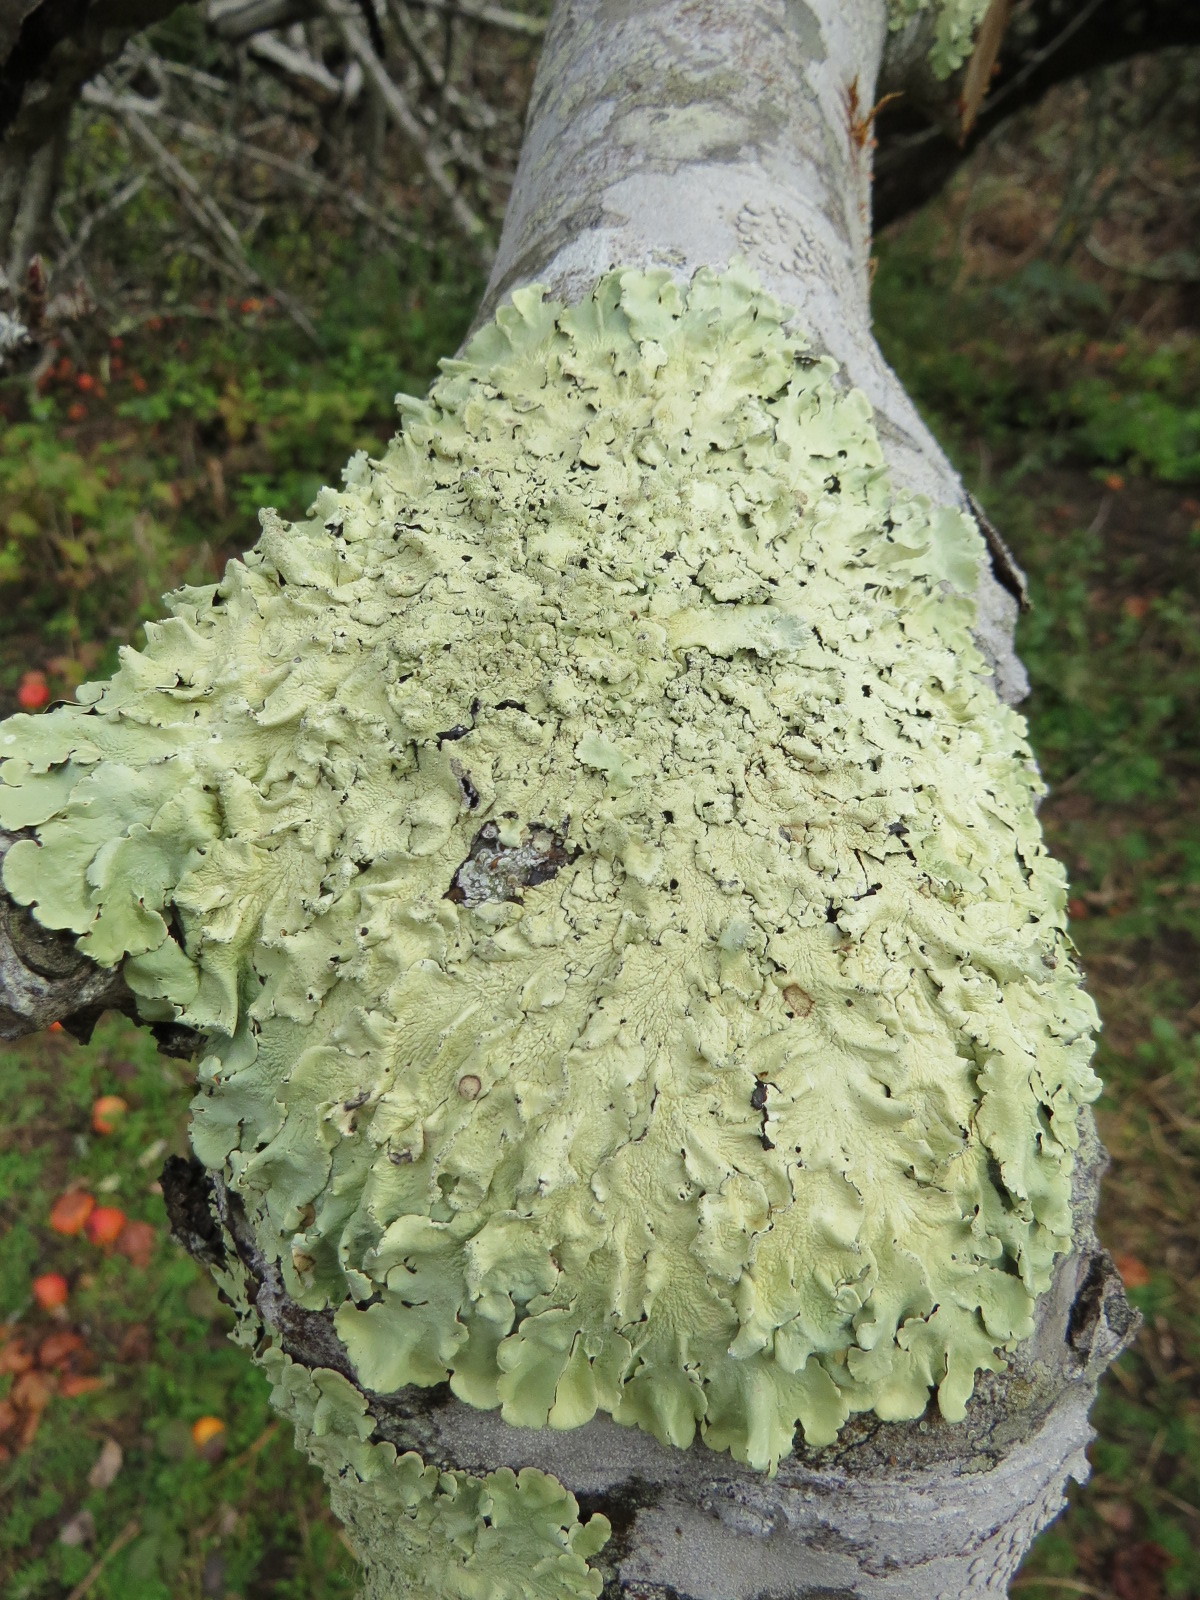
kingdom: Fungi
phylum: Ascomycota
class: Lecanoromycetes
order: Lecanorales
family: Parmeliaceae
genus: Flavoparmelia
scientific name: Flavoparmelia caperata
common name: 40-mile per hour lichen
